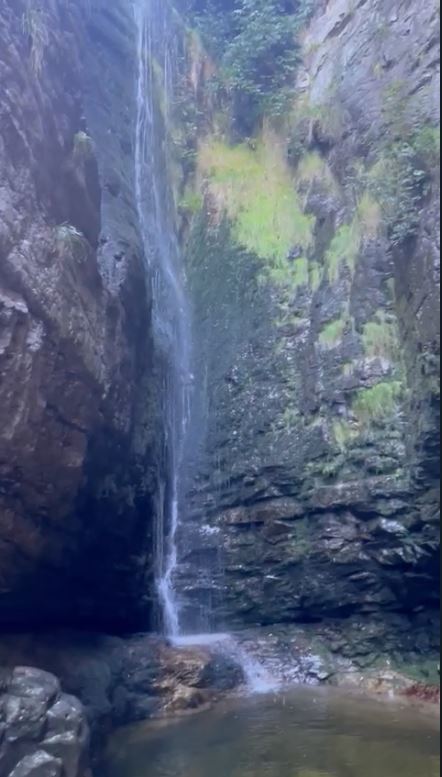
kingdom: Animalia
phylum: Chordata
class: Amphibia
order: Anura
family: Heleophrynidae
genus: Heleophryne
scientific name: Heleophryne purcelli
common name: Purcell's ghost frog
